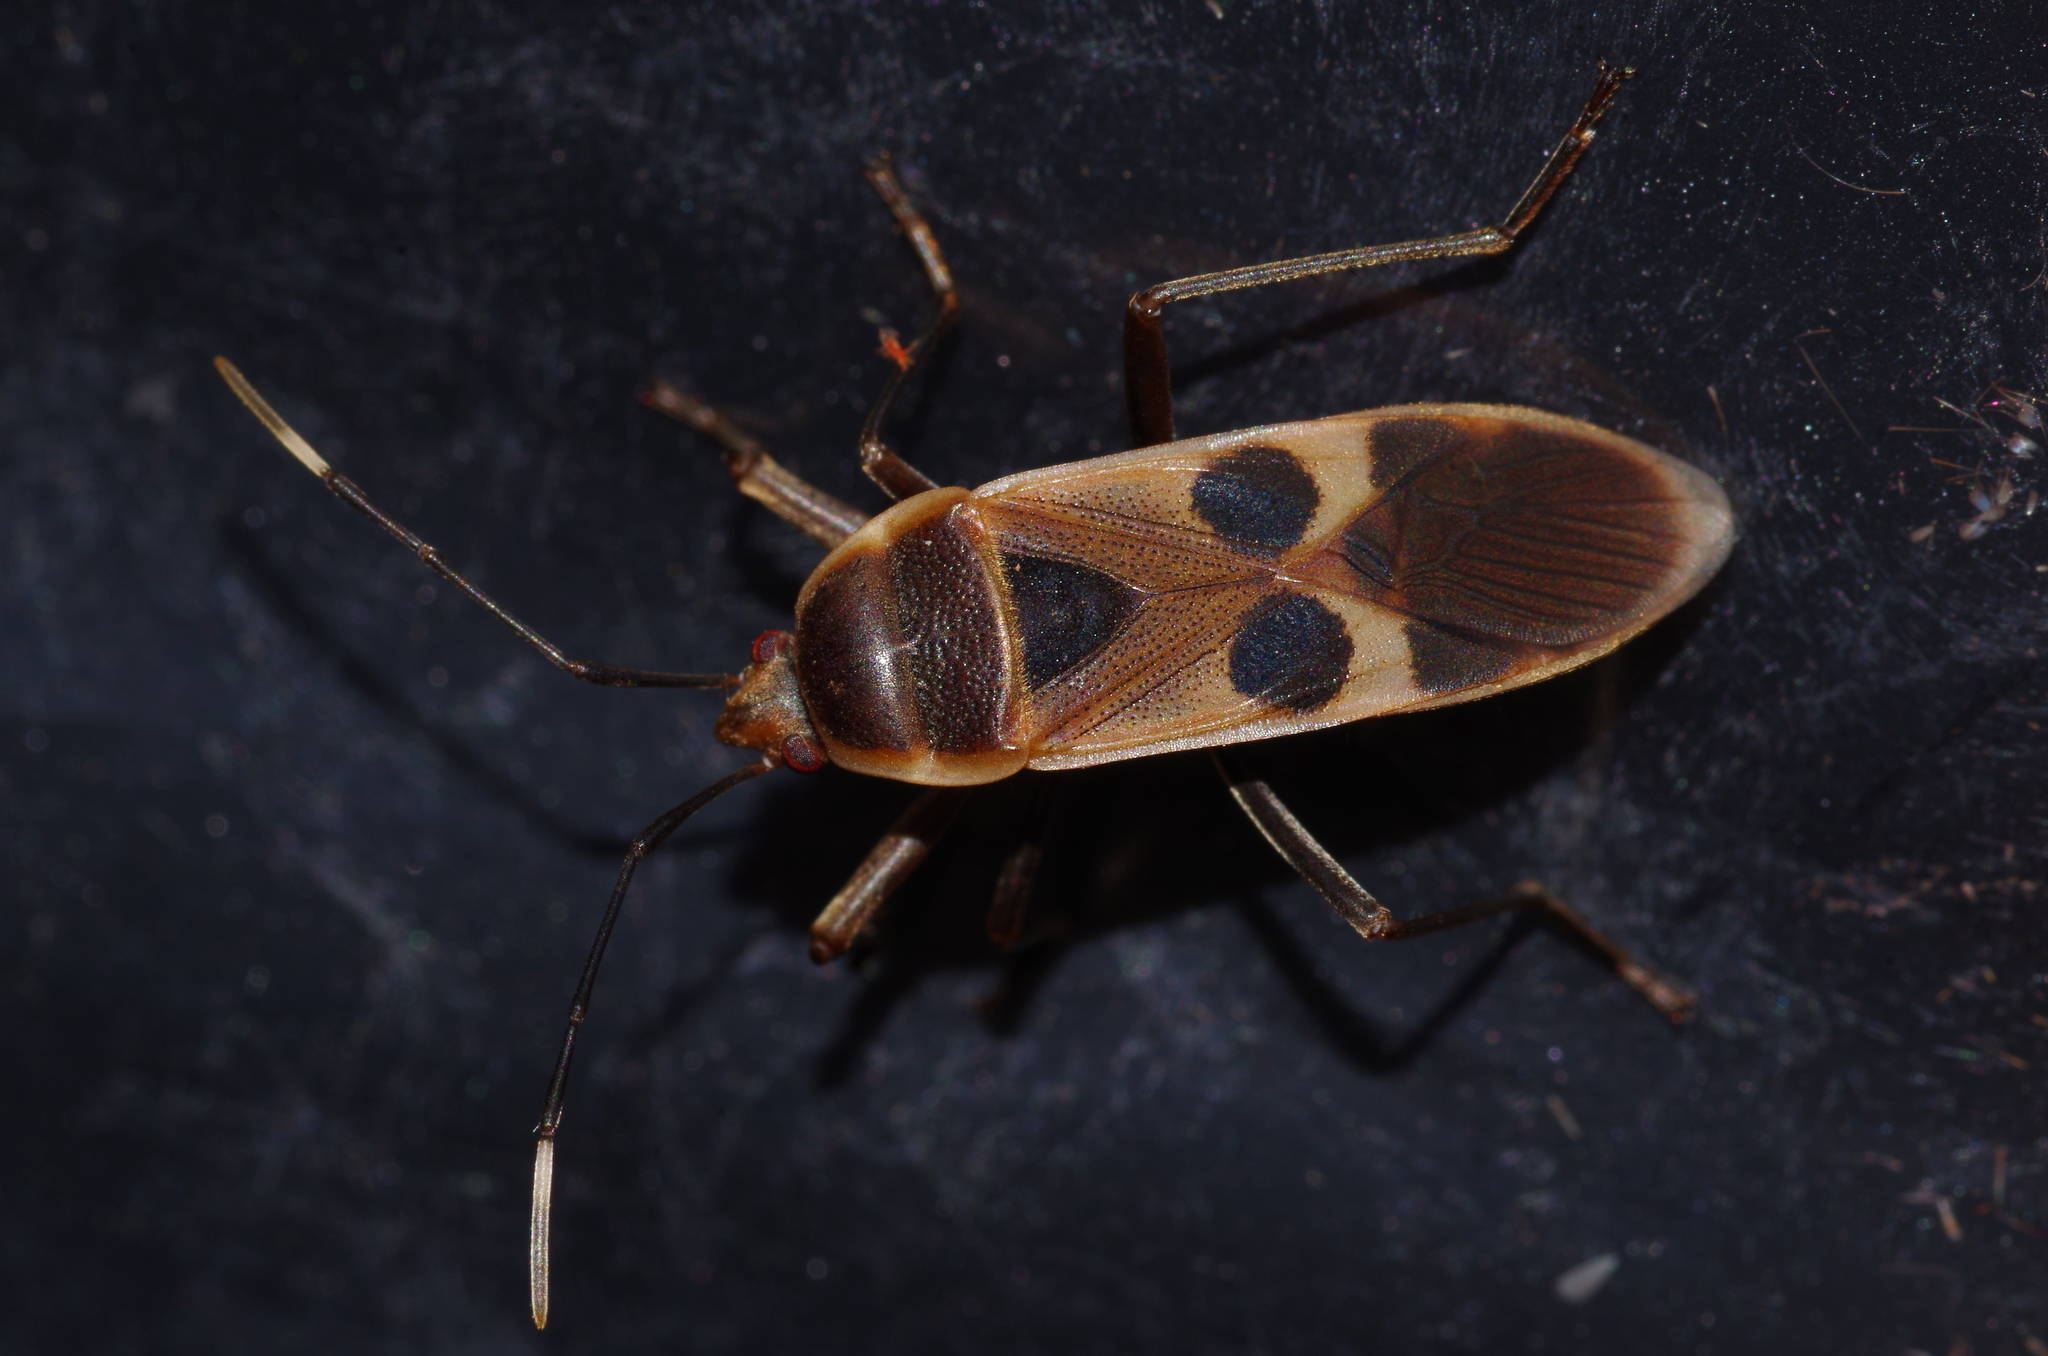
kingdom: Animalia
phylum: Arthropoda
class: Insecta
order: Hemiptera
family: Largidae
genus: Physopelta
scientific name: Physopelta gutta
